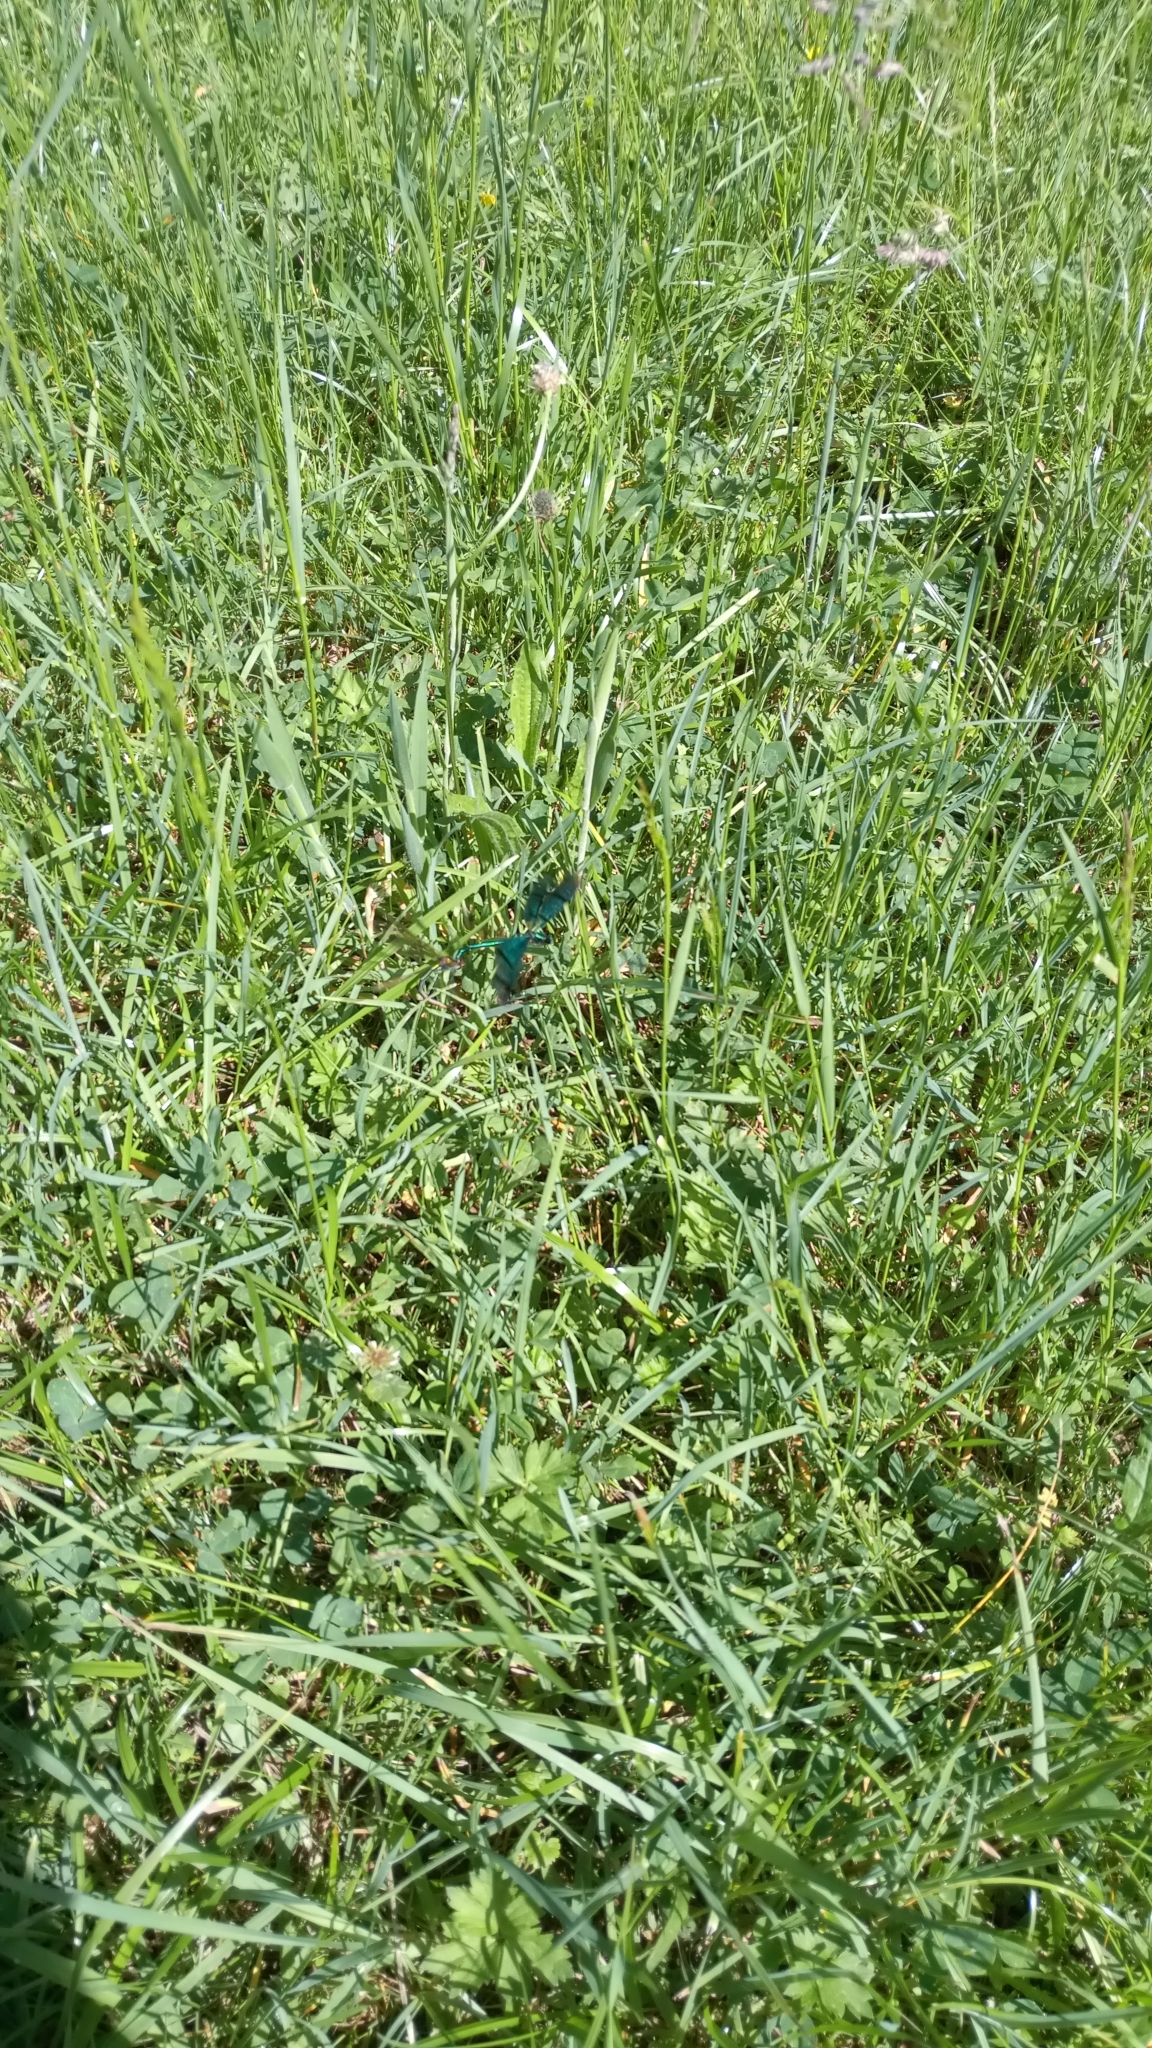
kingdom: Animalia
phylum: Arthropoda
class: Insecta
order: Odonata
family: Calopterygidae
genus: Calopteryx
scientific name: Calopteryx virgo
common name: Beautiful demoiselle
